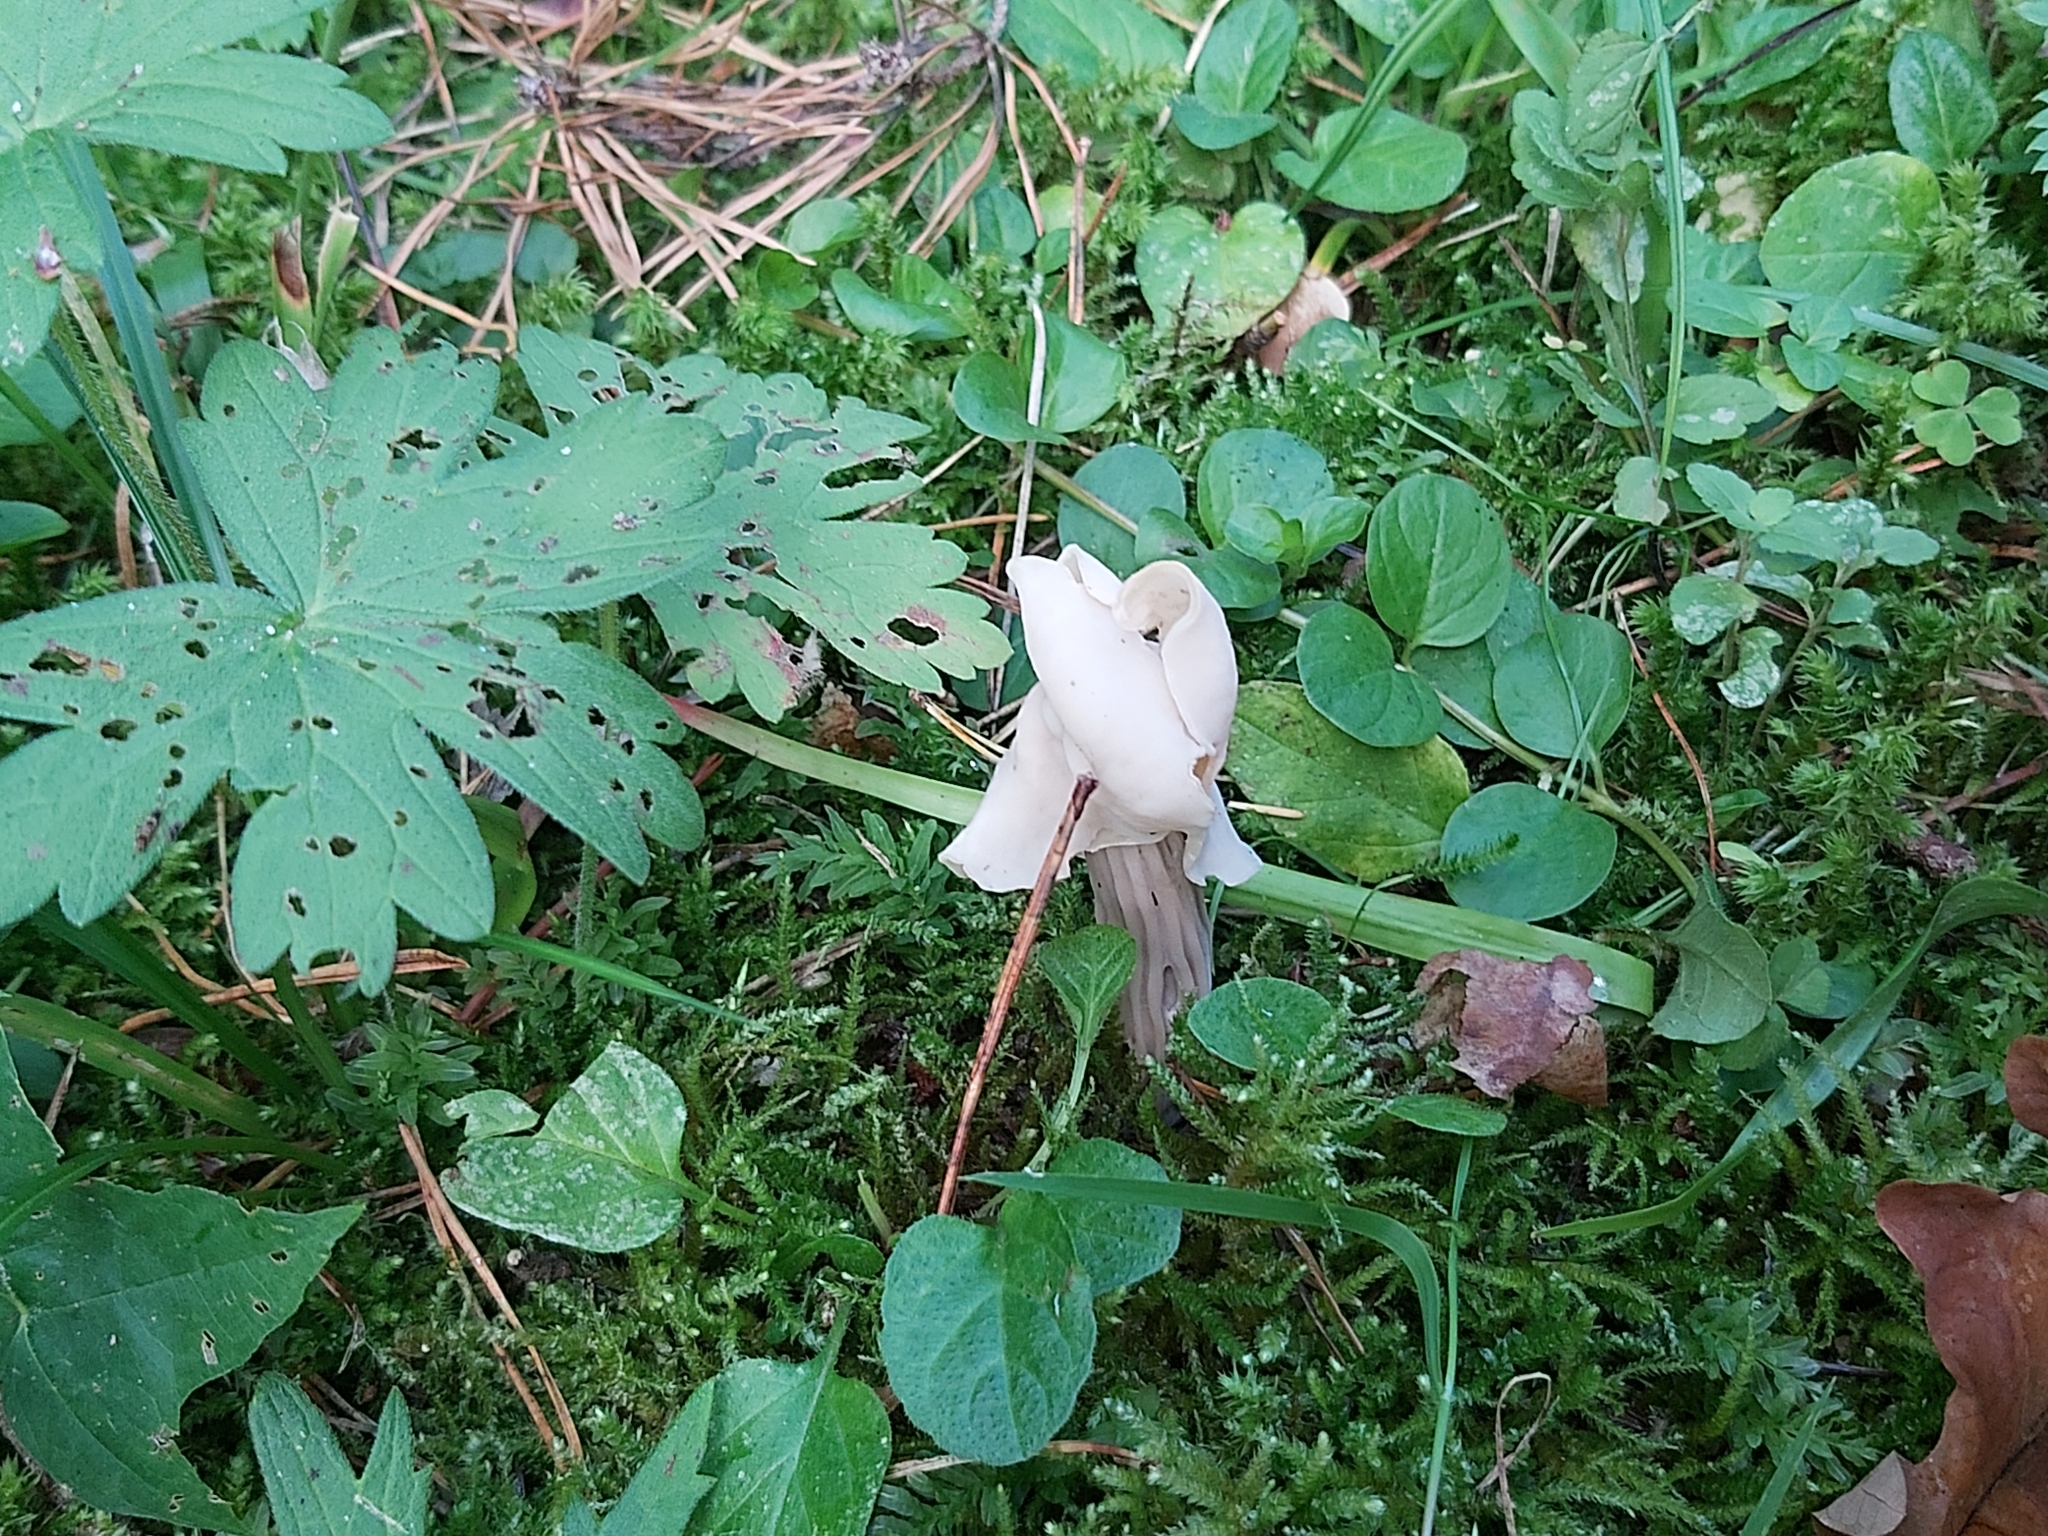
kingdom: Fungi
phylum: Ascomycota
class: Pezizomycetes
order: Pezizales
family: Helvellaceae
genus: Helvella
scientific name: Helvella crispa
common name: White saddle
